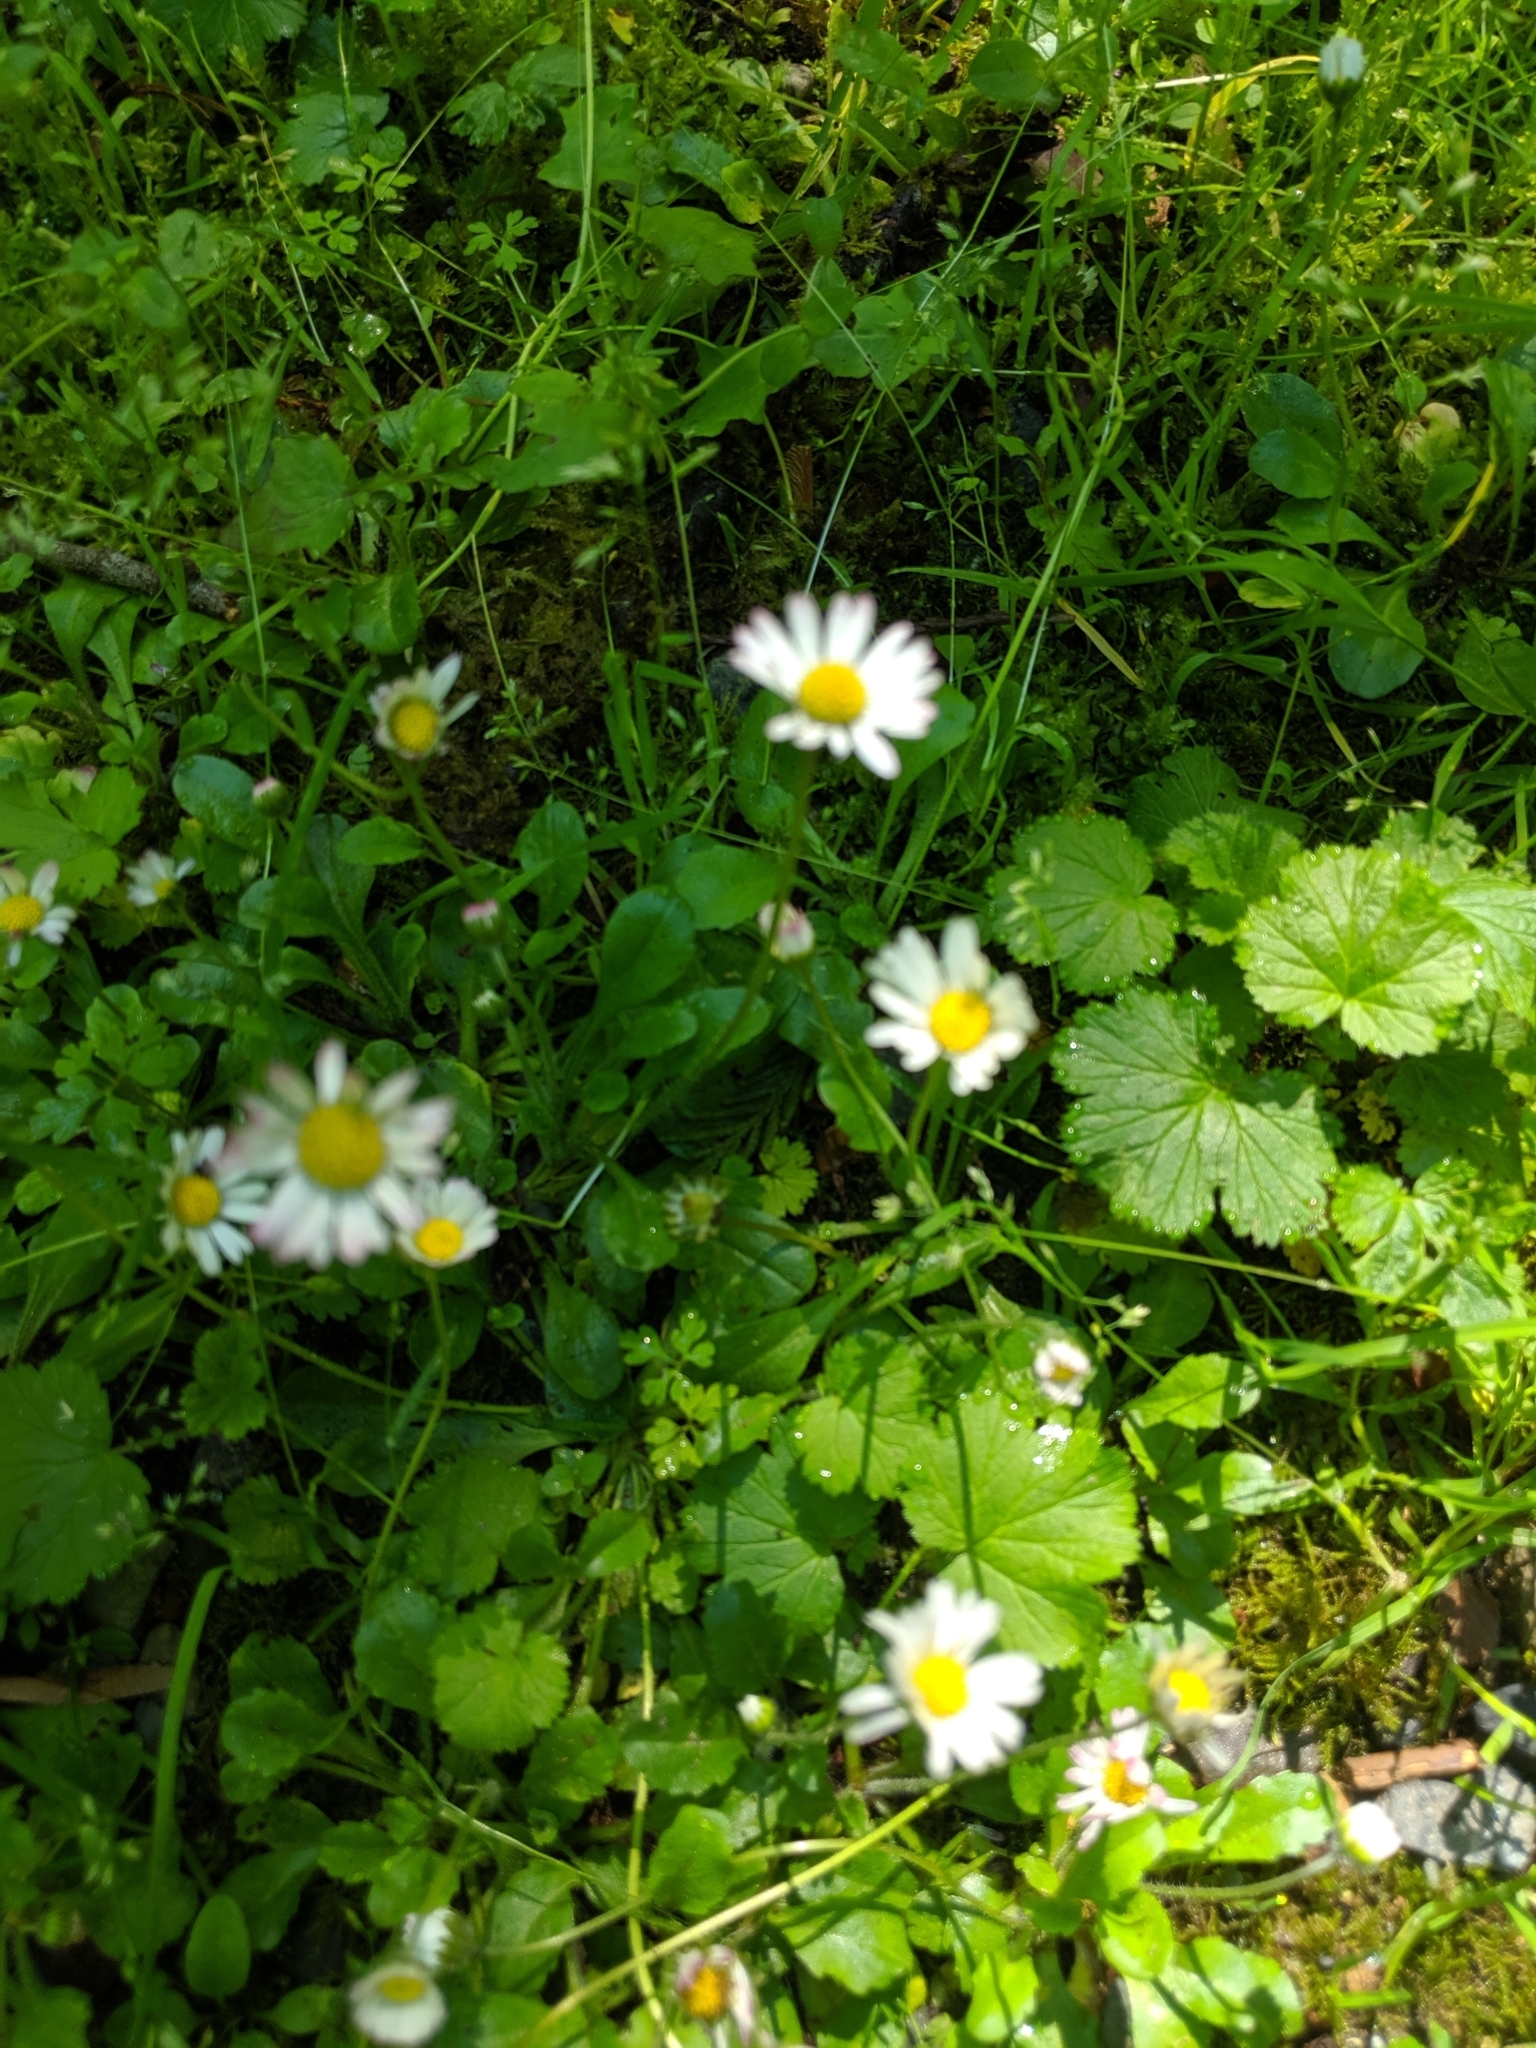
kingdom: Plantae
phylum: Tracheophyta
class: Magnoliopsida
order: Asterales
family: Asteraceae
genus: Bellis
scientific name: Bellis perennis
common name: Lawndaisy
